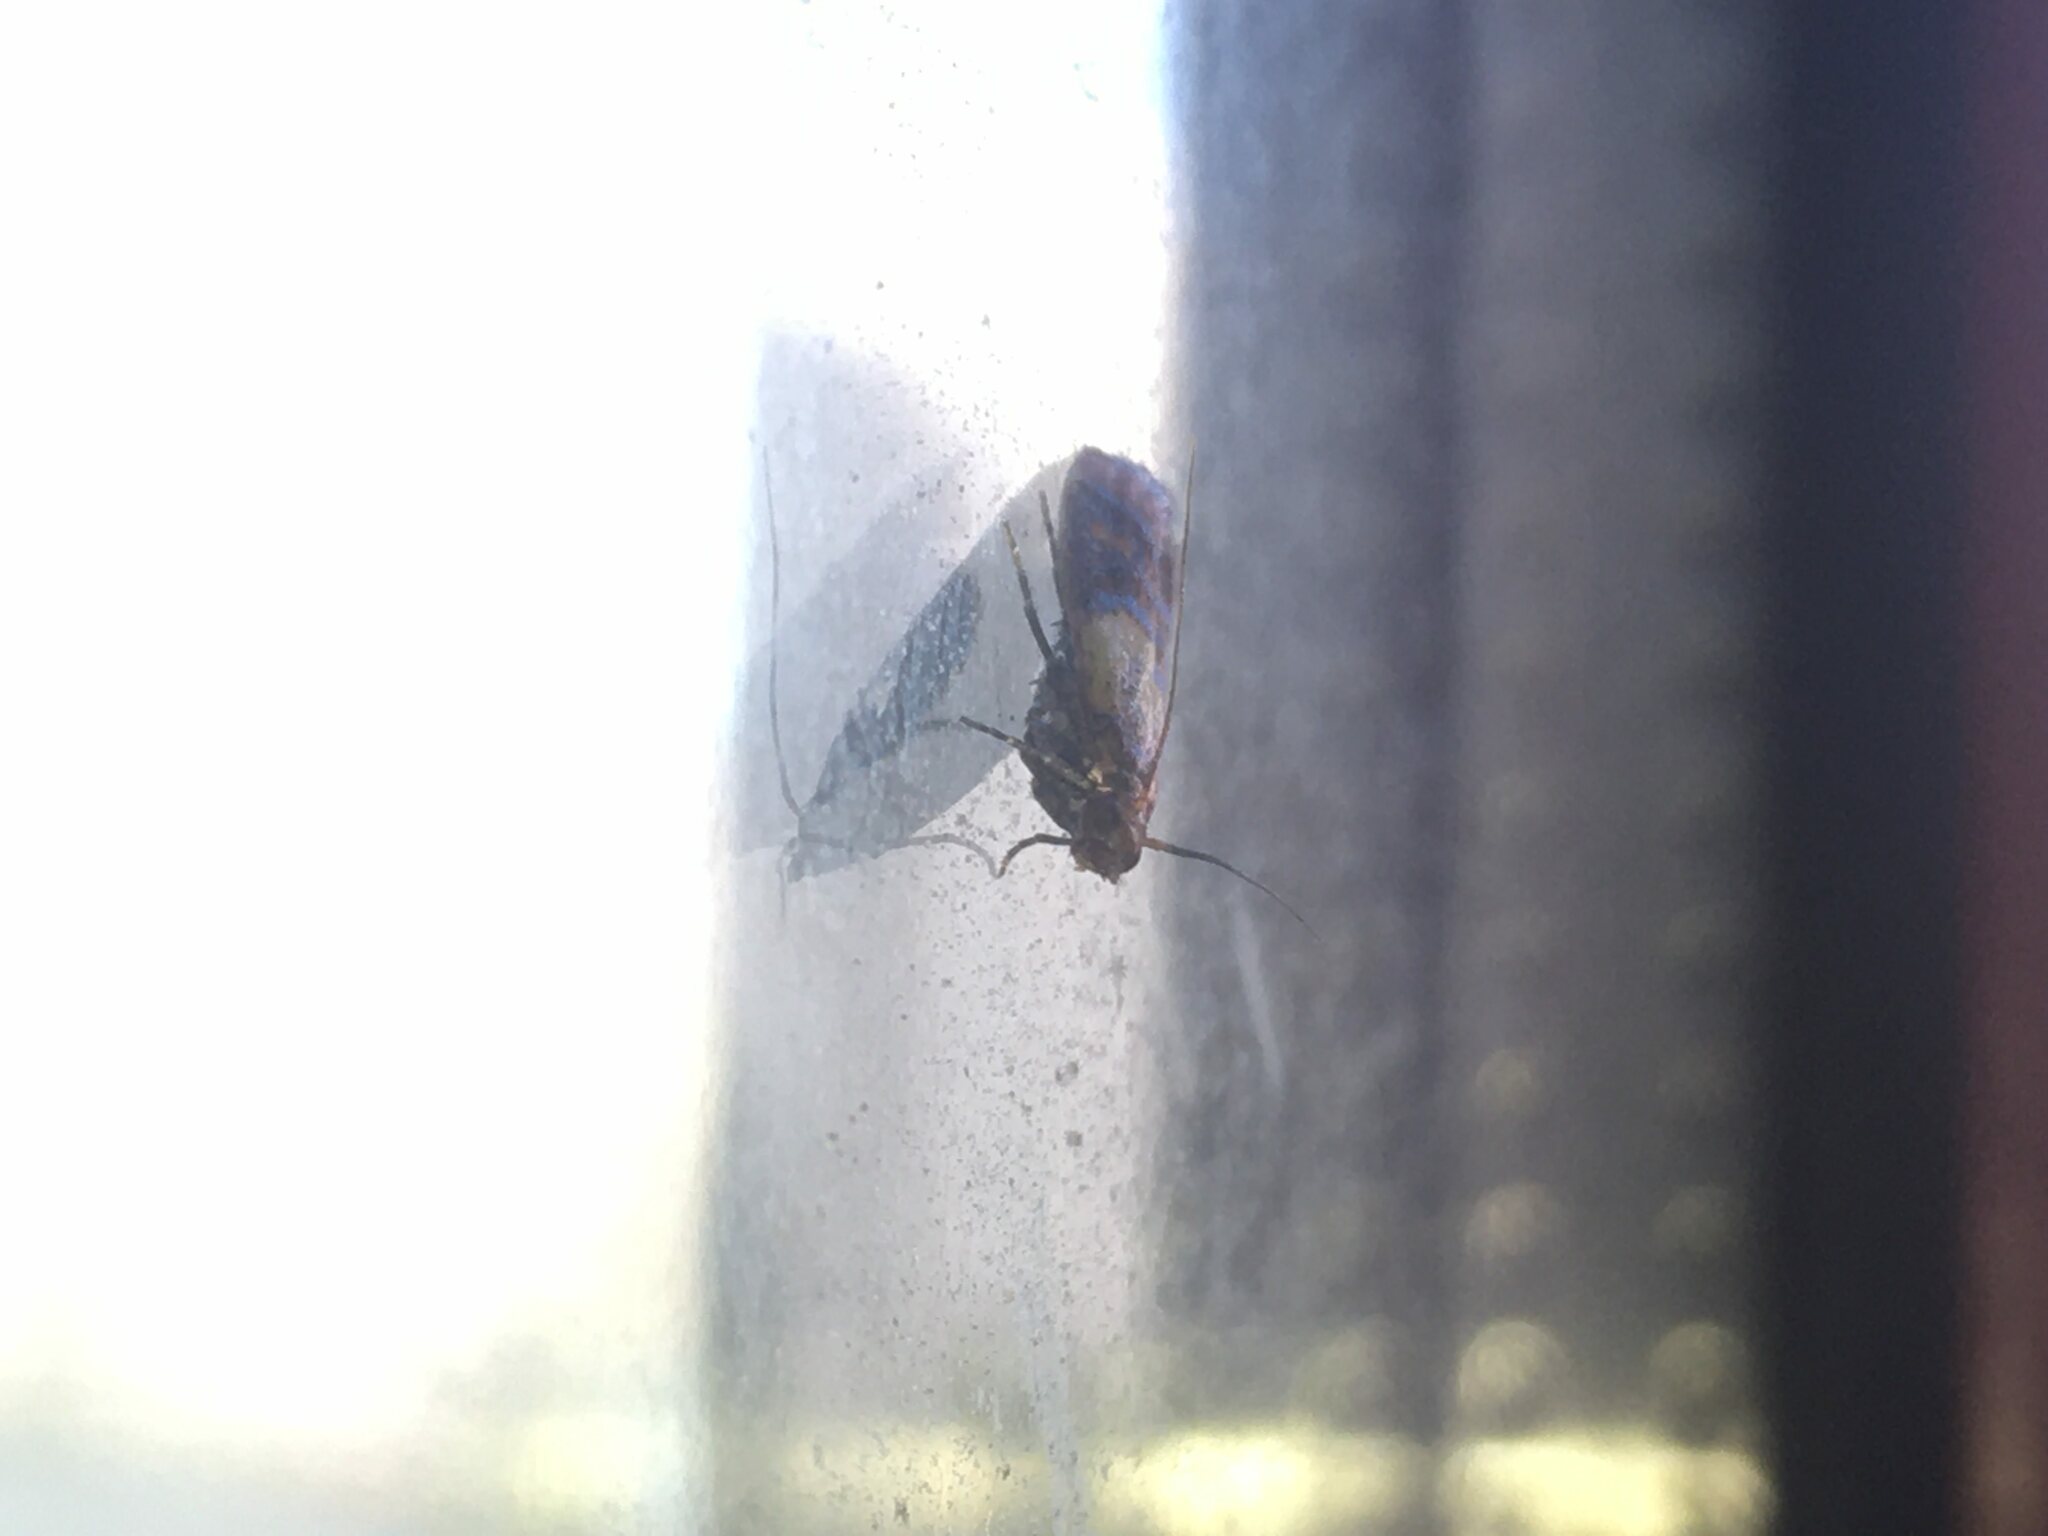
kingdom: Animalia
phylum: Arthropoda
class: Insecta
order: Lepidoptera
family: Pyralidae
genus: Plodia
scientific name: Plodia interpunctella
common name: Indian meal moth
